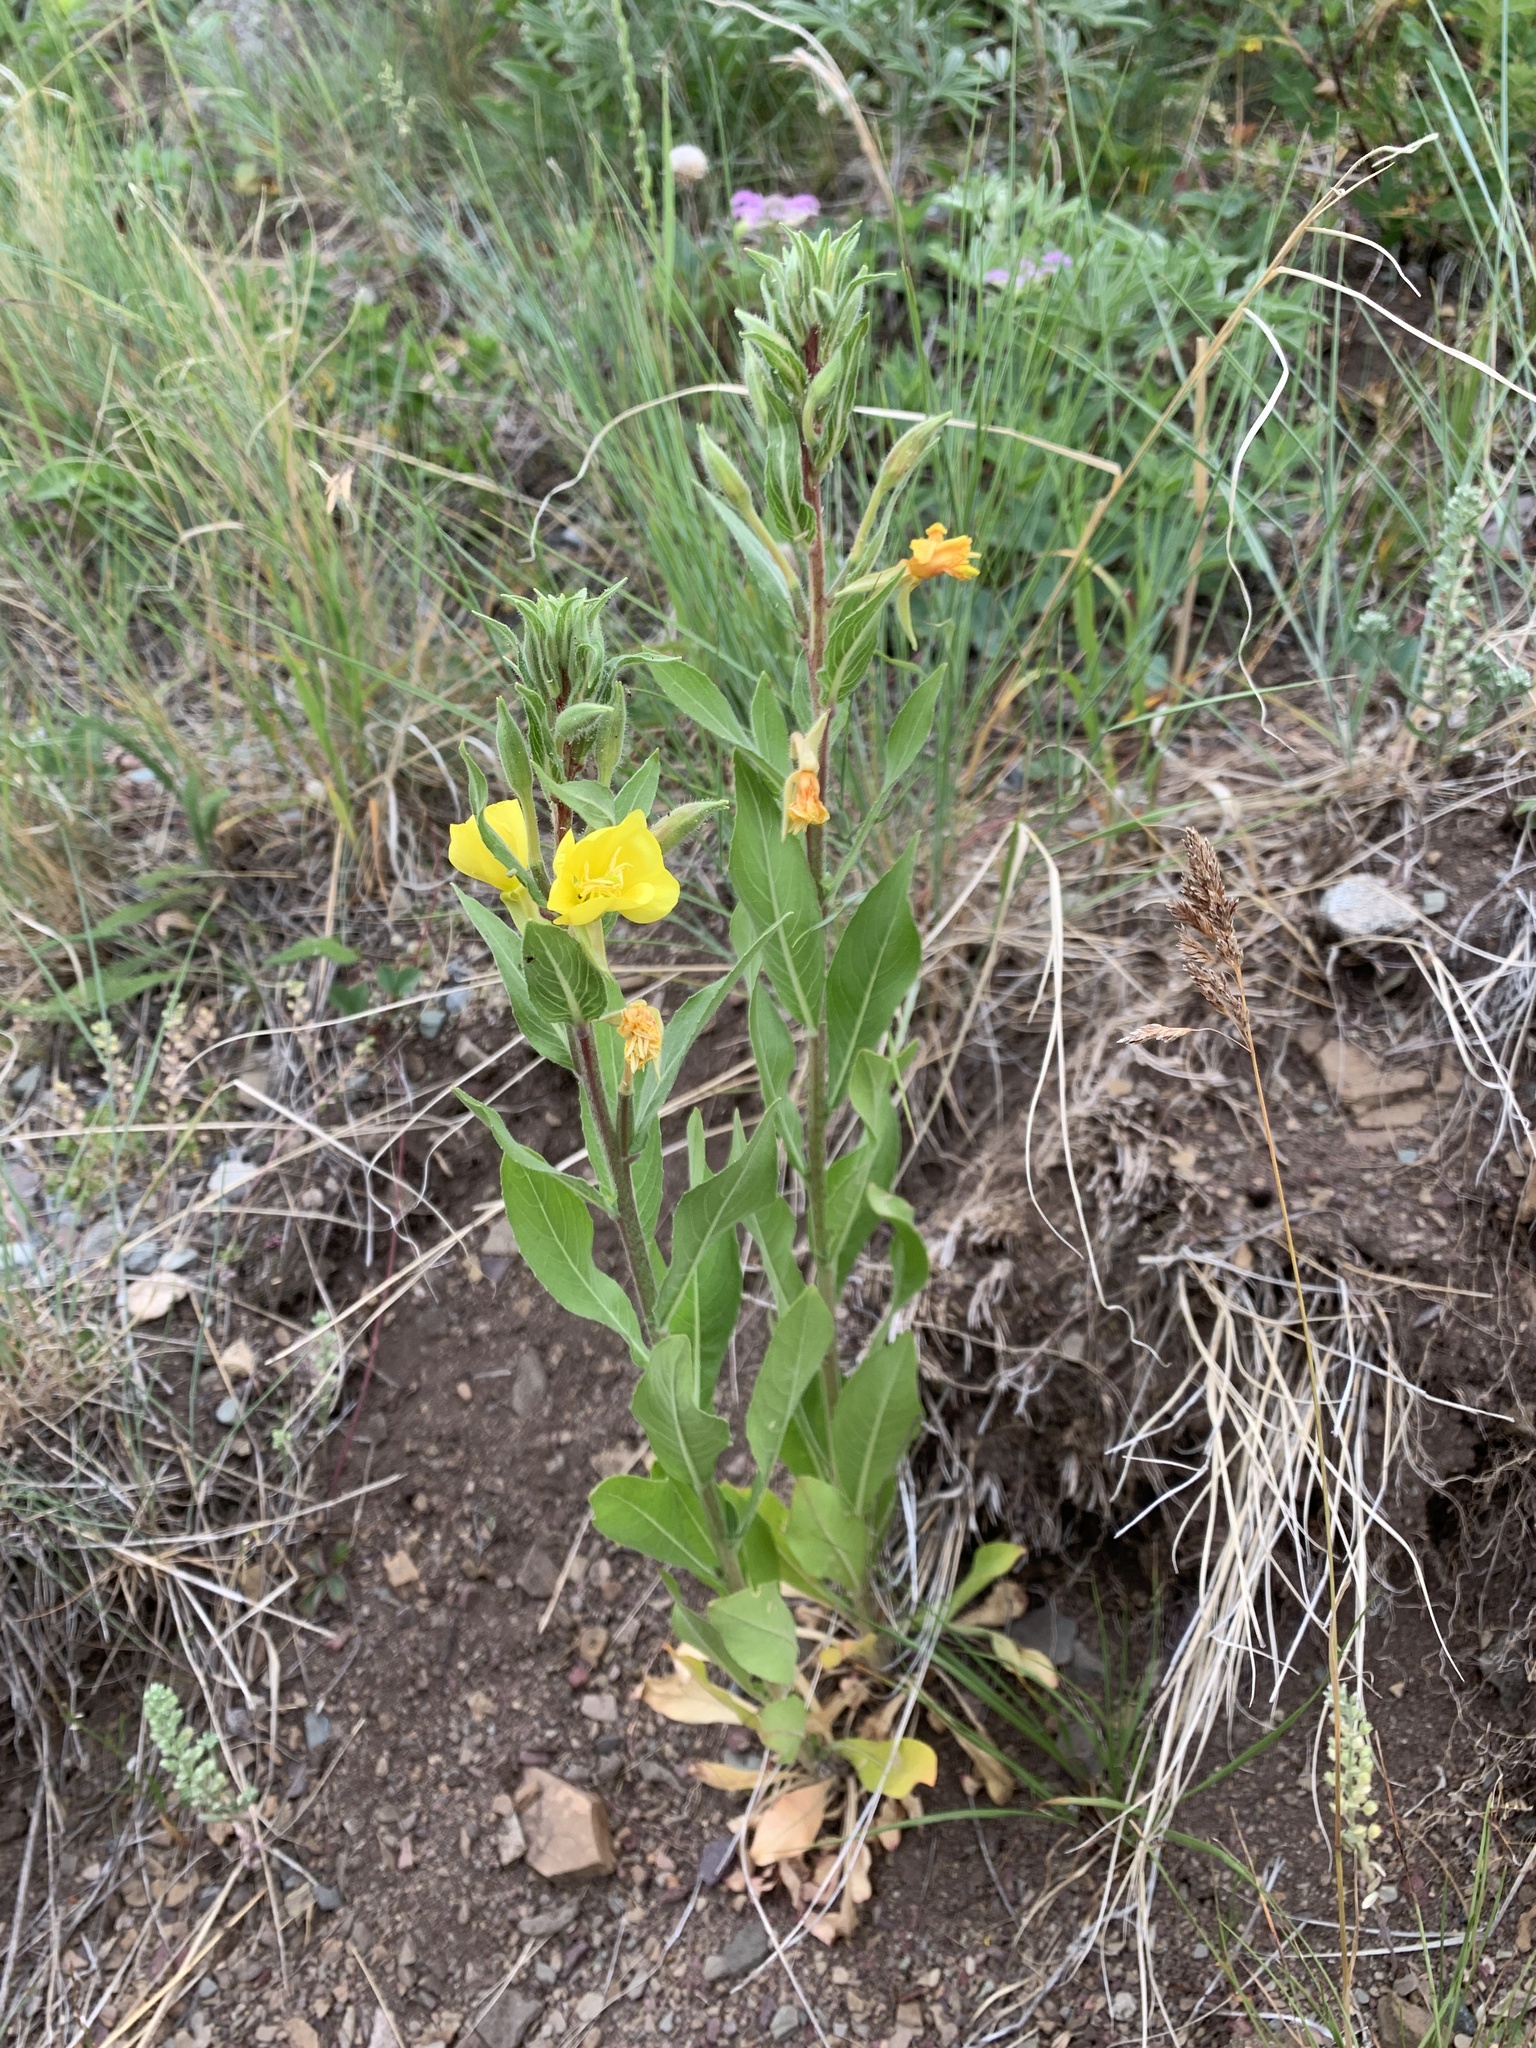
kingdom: Plantae
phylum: Tracheophyta
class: Magnoliopsida
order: Myrtales
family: Onagraceae
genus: Oenothera
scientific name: Oenothera villosa
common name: Hairy evening-primrose
